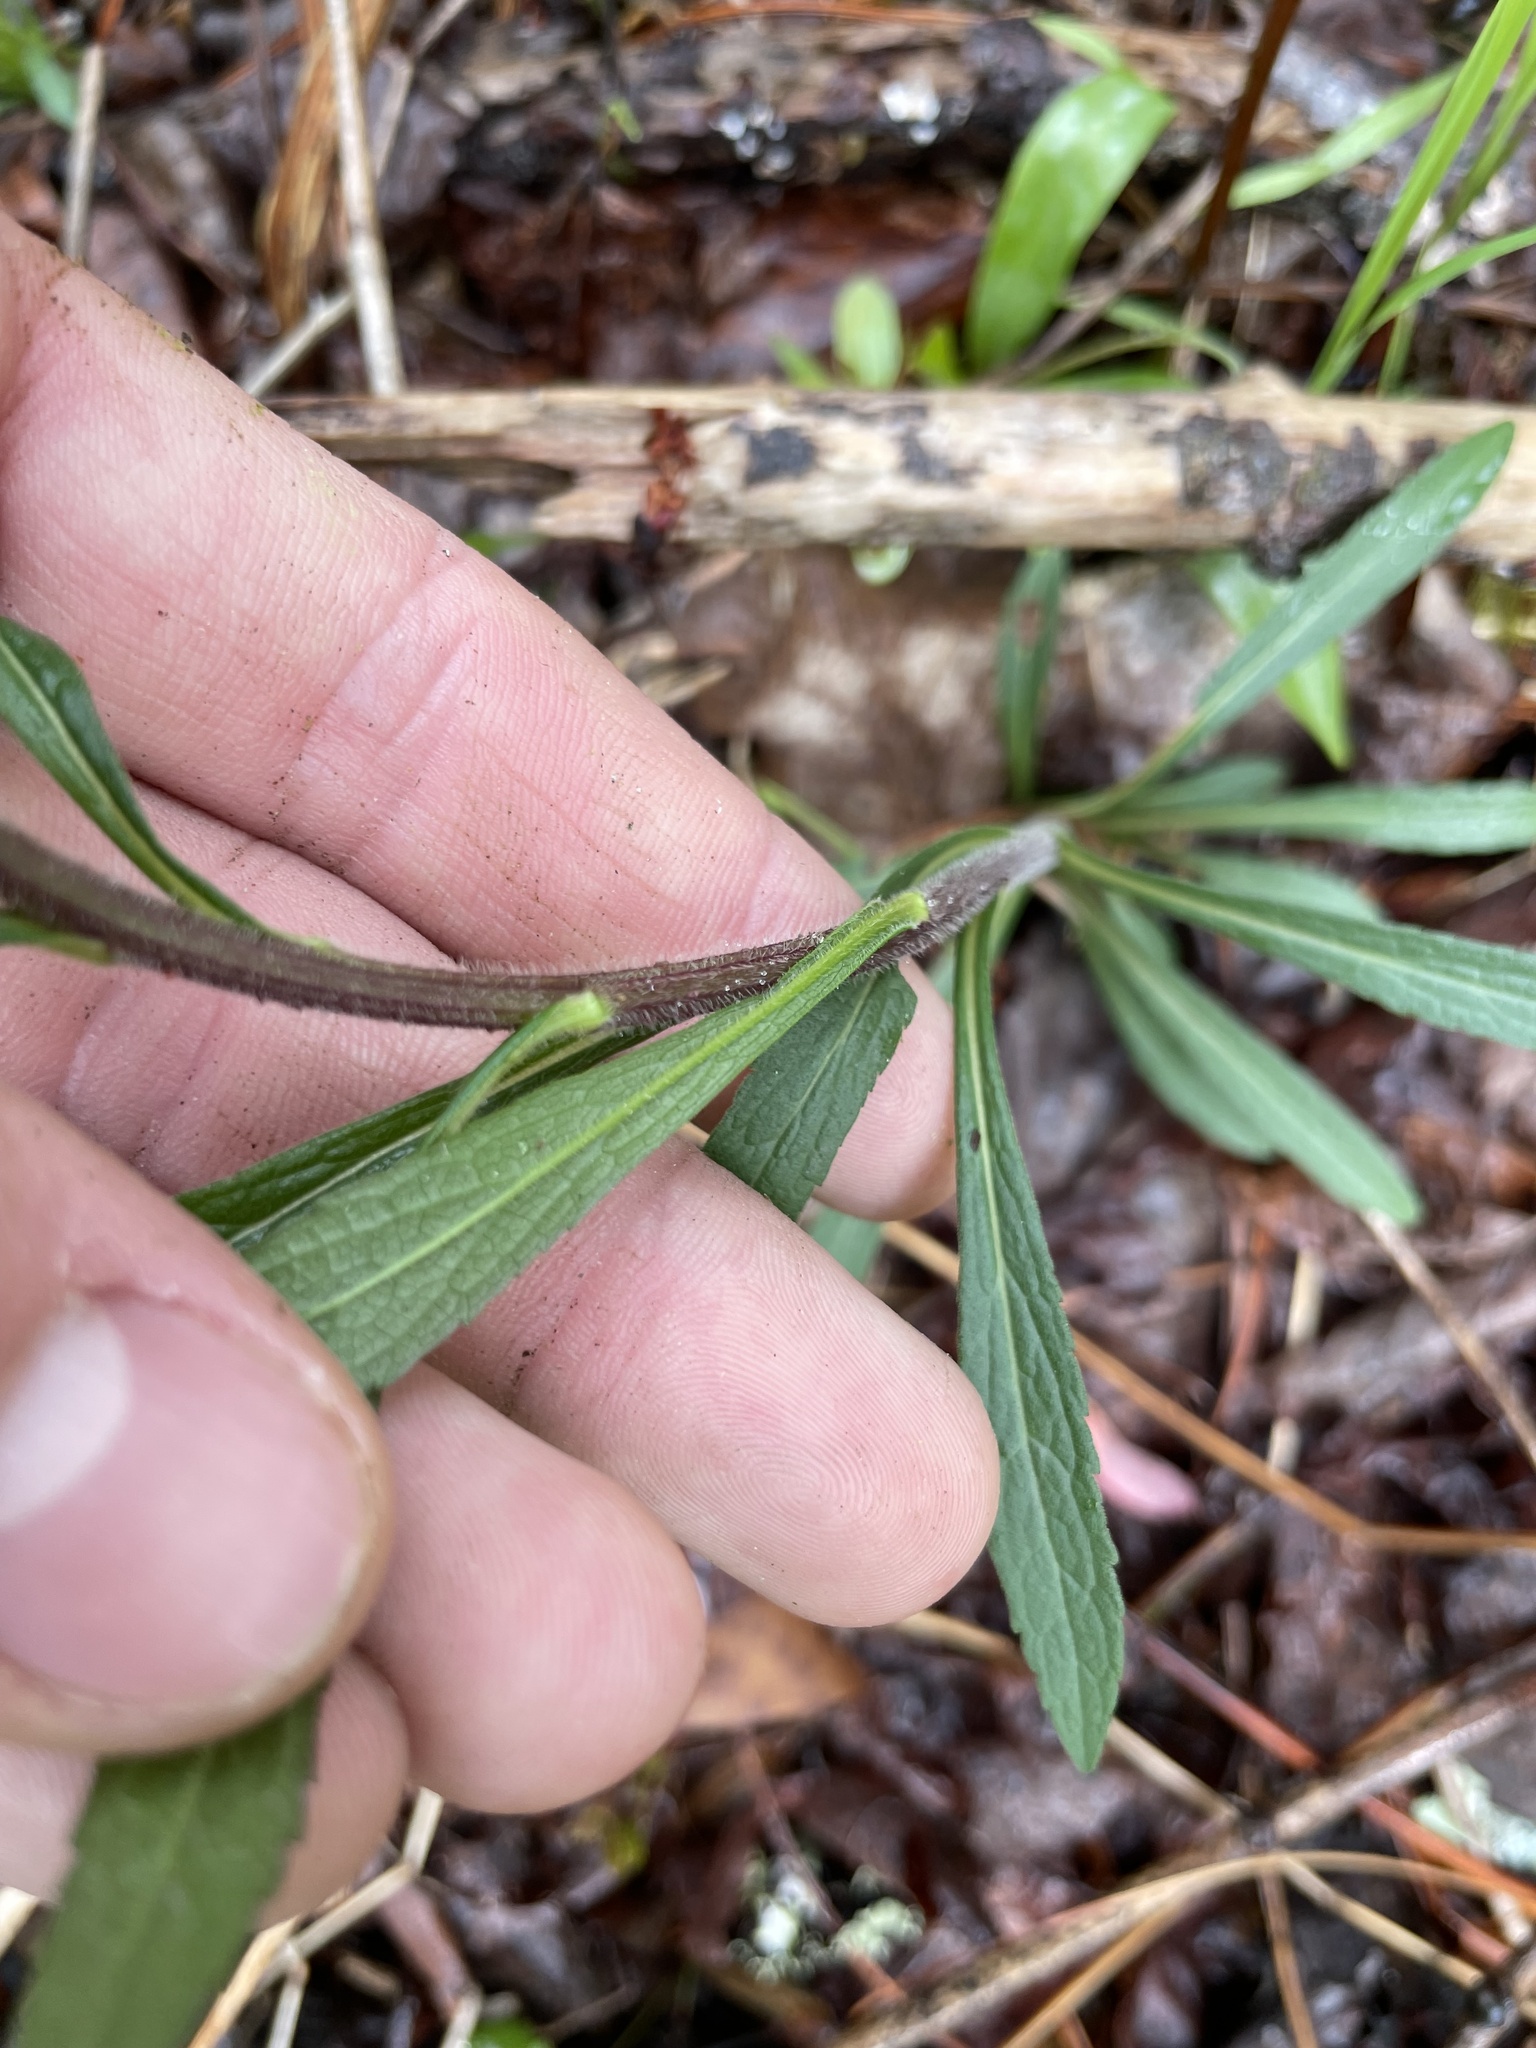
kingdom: Plantae
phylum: Tracheophyta
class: Magnoliopsida
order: Asterales
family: Asteraceae
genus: Solidago
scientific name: Solidago rugosa
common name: Rough-stemmed goldenrod
